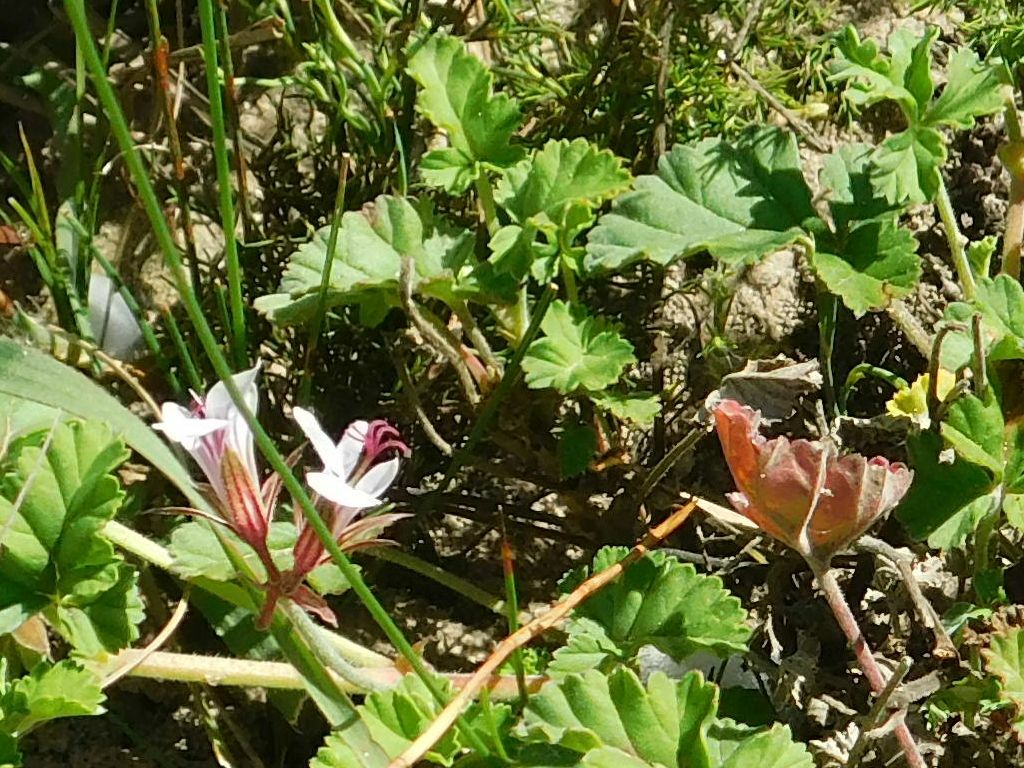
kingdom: Plantae
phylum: Tracheophyta
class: Magnoliopsida
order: Geraniales
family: Geraniaceae
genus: Pelargonium
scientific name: Pelargonium candicans
